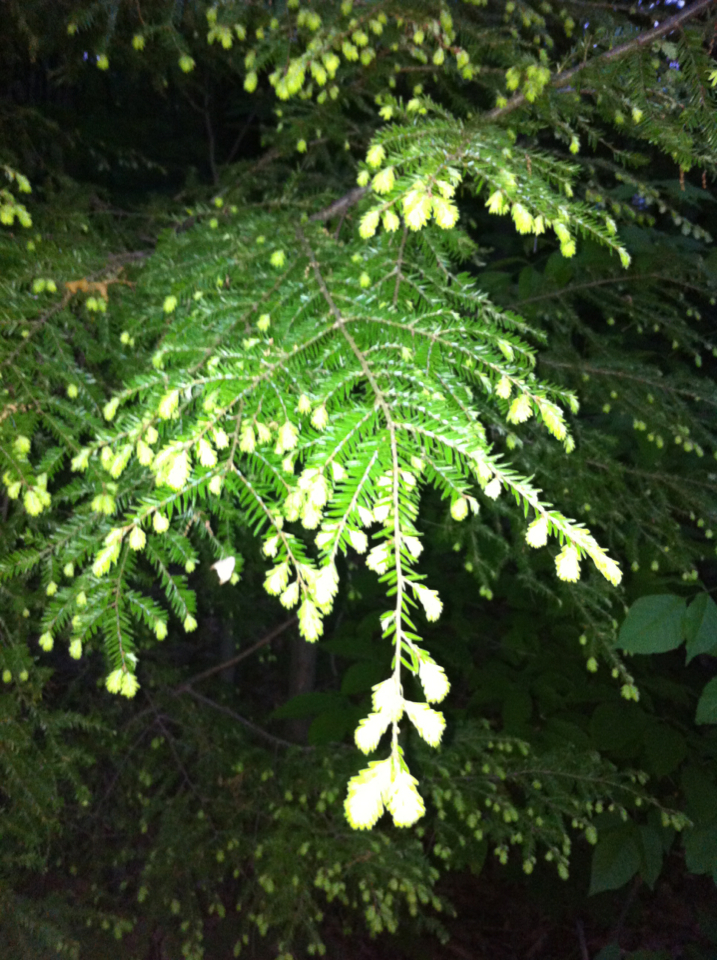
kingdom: Plantae
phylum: Tracheophyta
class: Pinopsida
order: Pinales
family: Pinaceae
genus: Tsuga
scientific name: Tsuga canadensis
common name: Eastern hemlock
